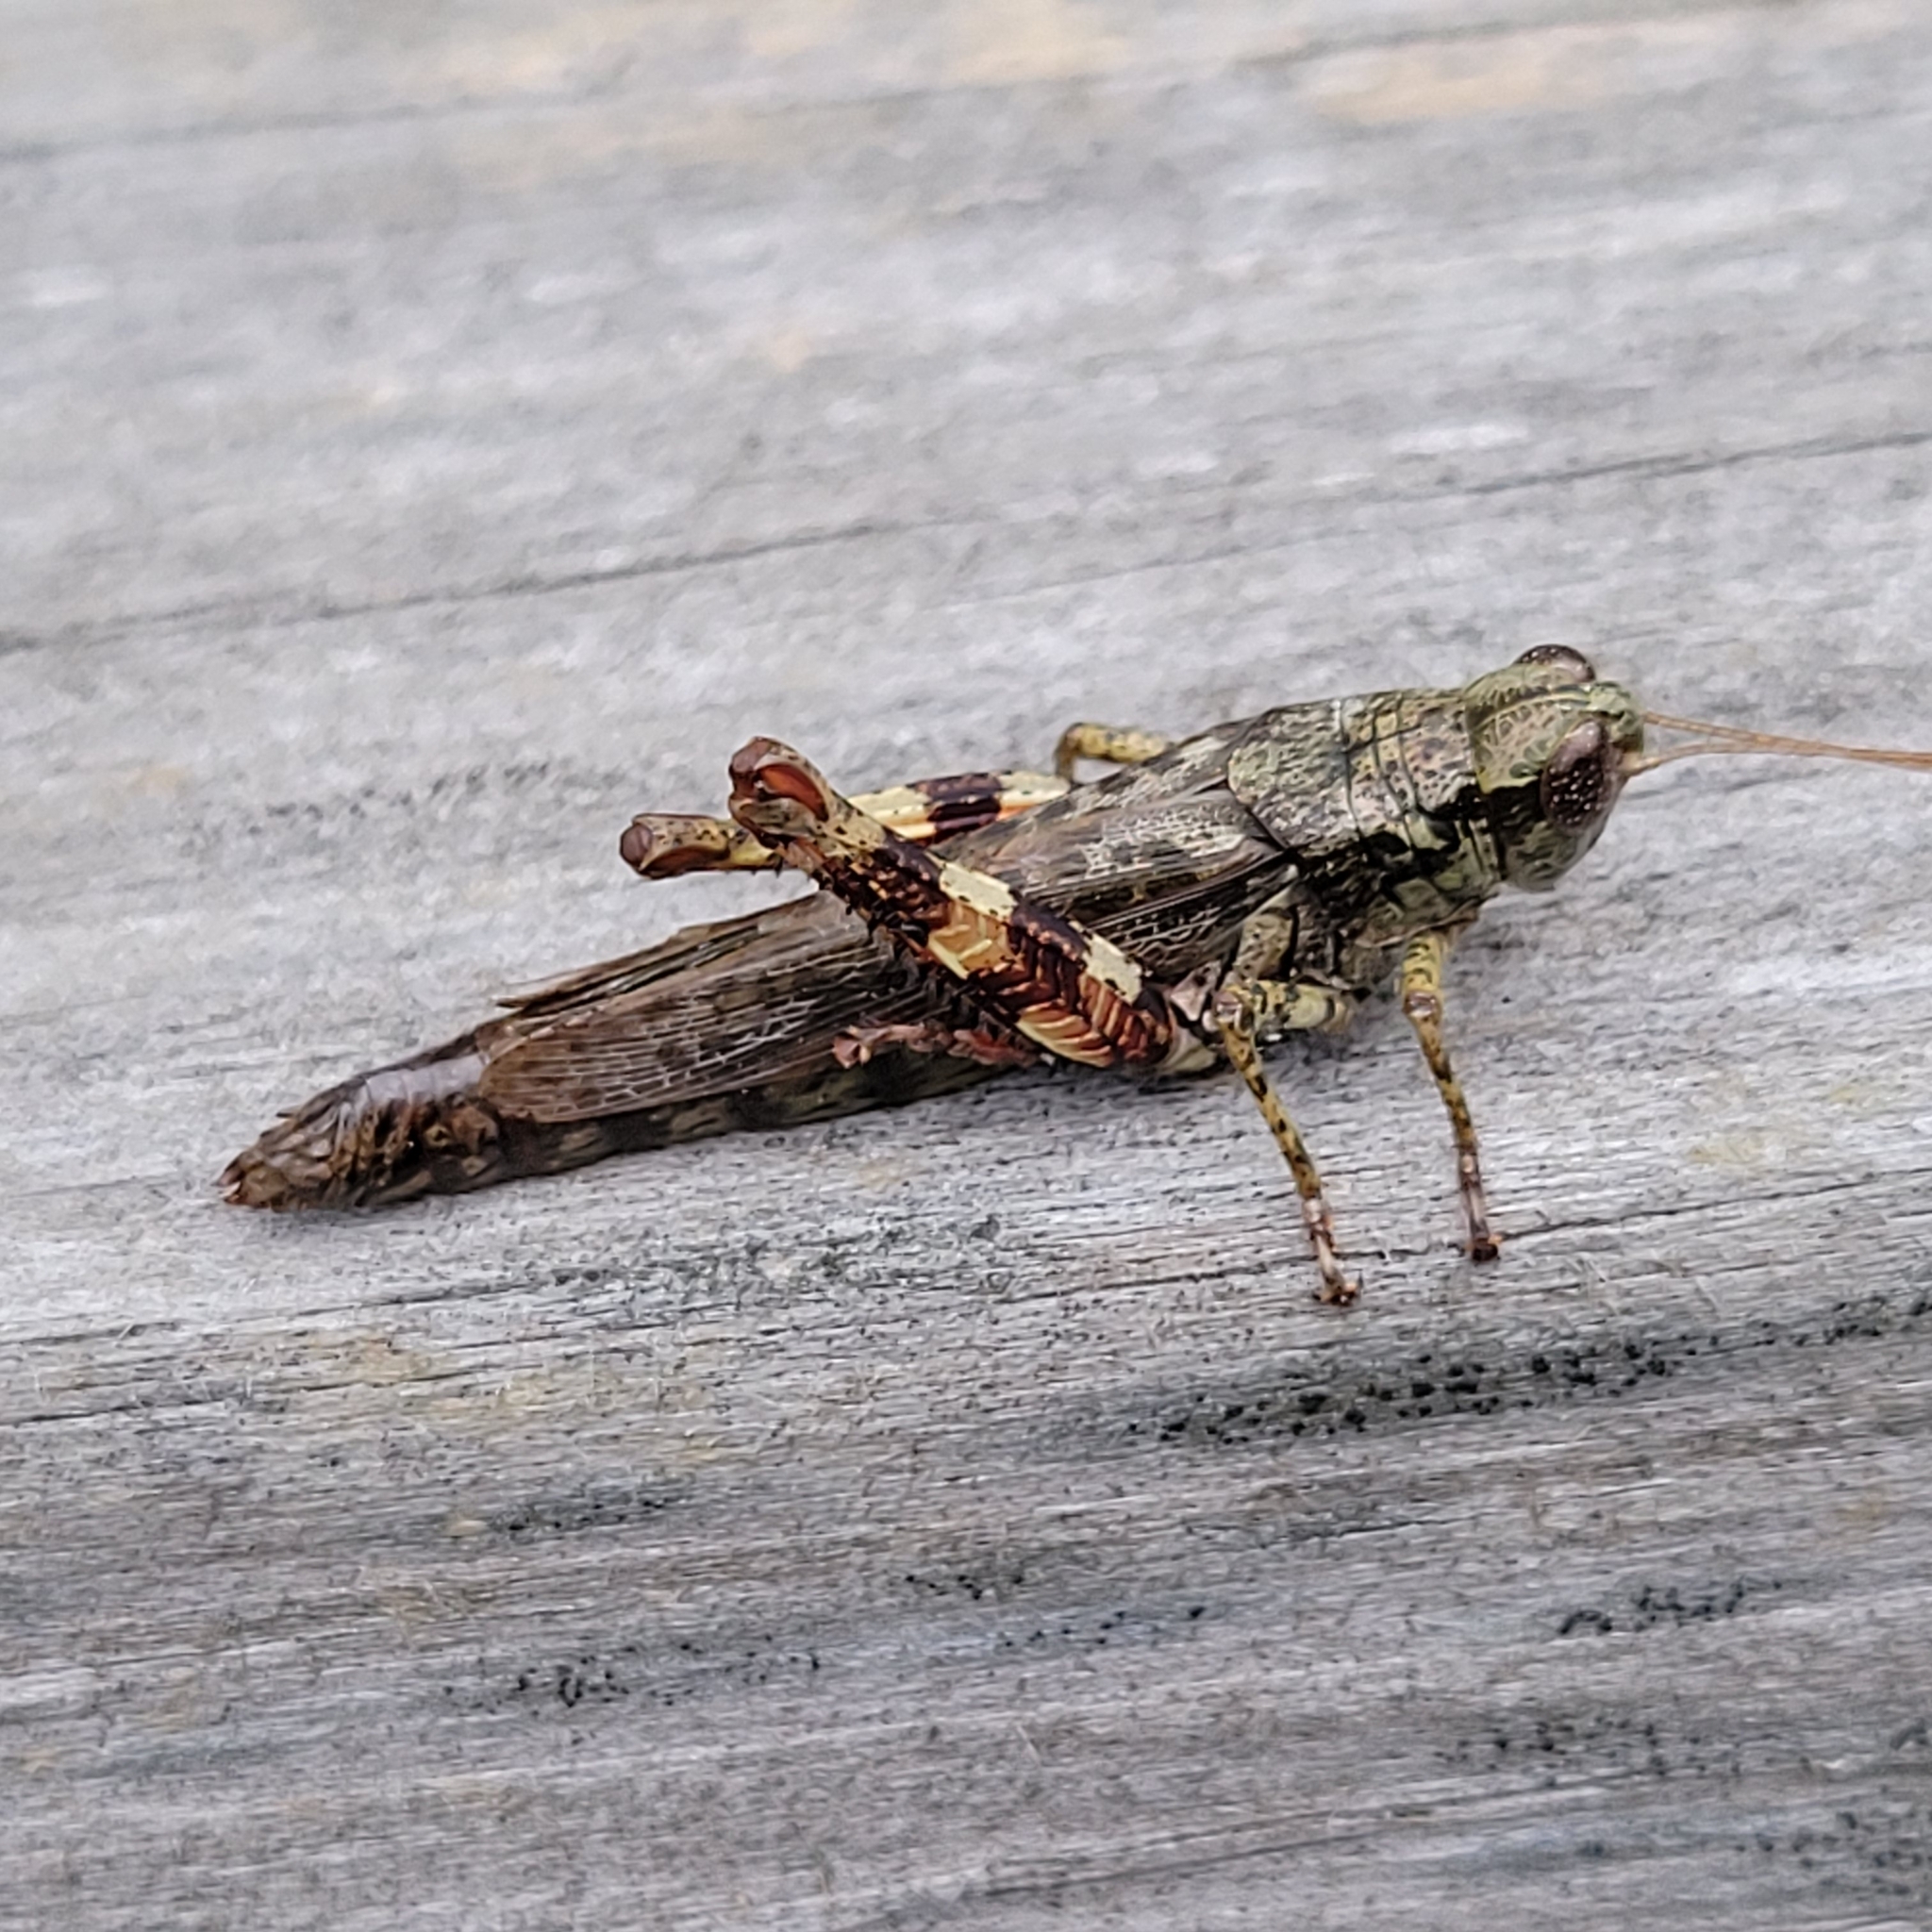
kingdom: Animalia
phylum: Arthropoda
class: Insecta
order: Orthoptera
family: Acrididae
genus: Melanoplus
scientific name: Melanoplus punctulatus
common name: Pine-tree spur-throat grasshopper
